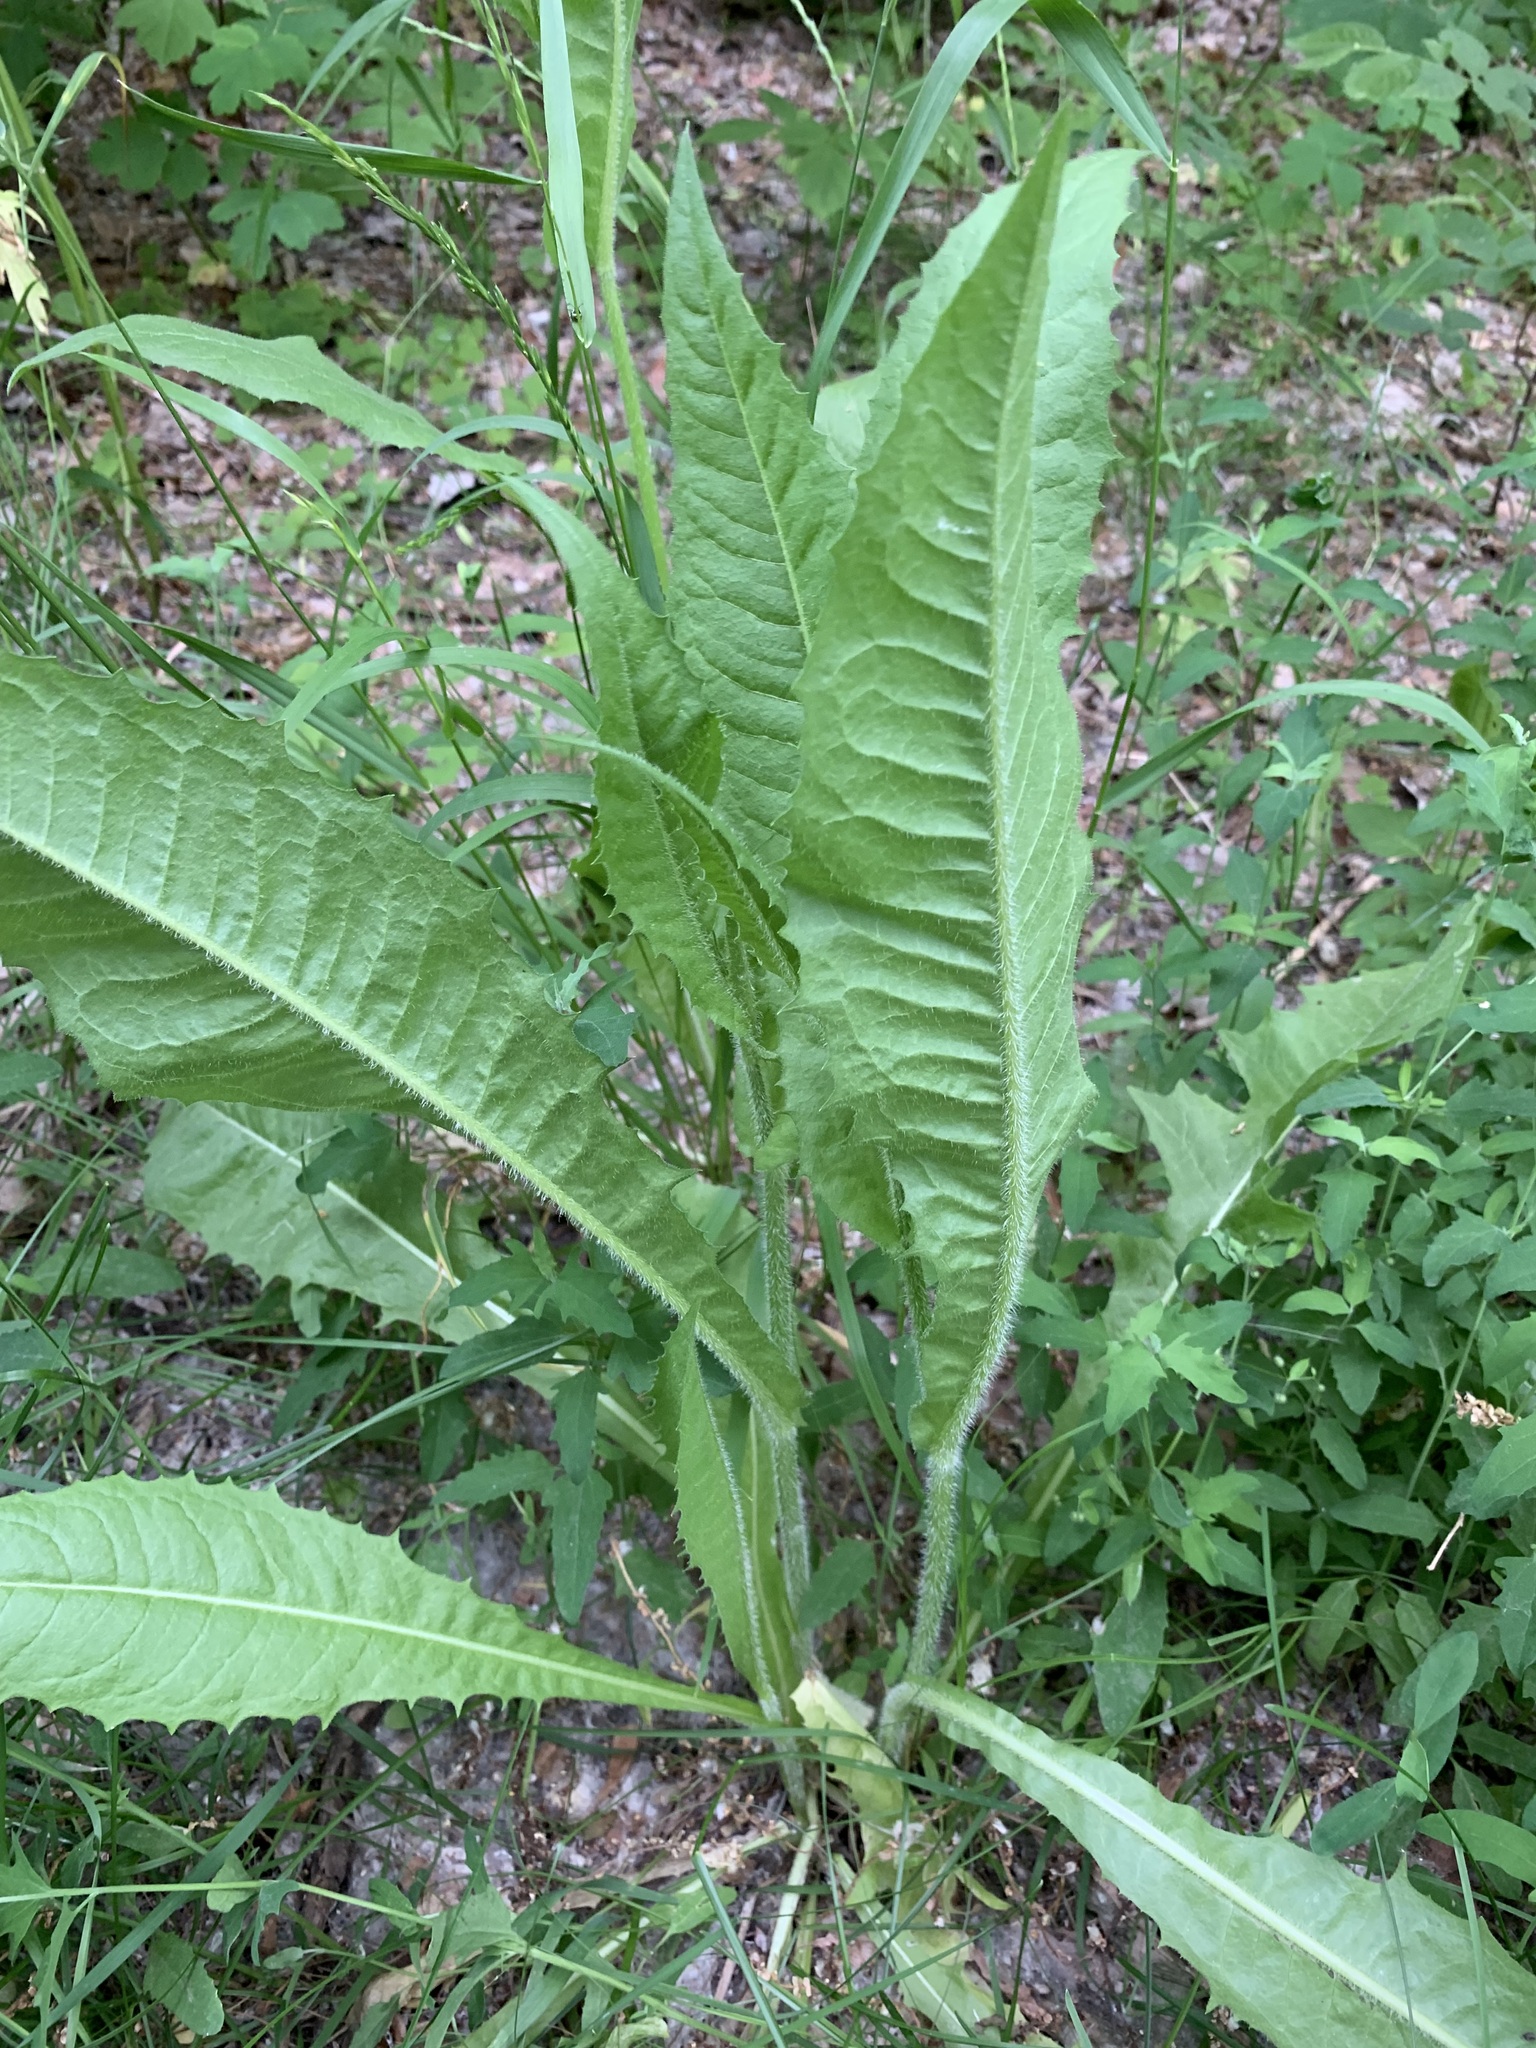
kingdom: Plantae
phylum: Tracheophyta
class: Magnoliopsida
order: Asterales
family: Asteraceae
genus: Crepis
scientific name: Crepis sibirica
